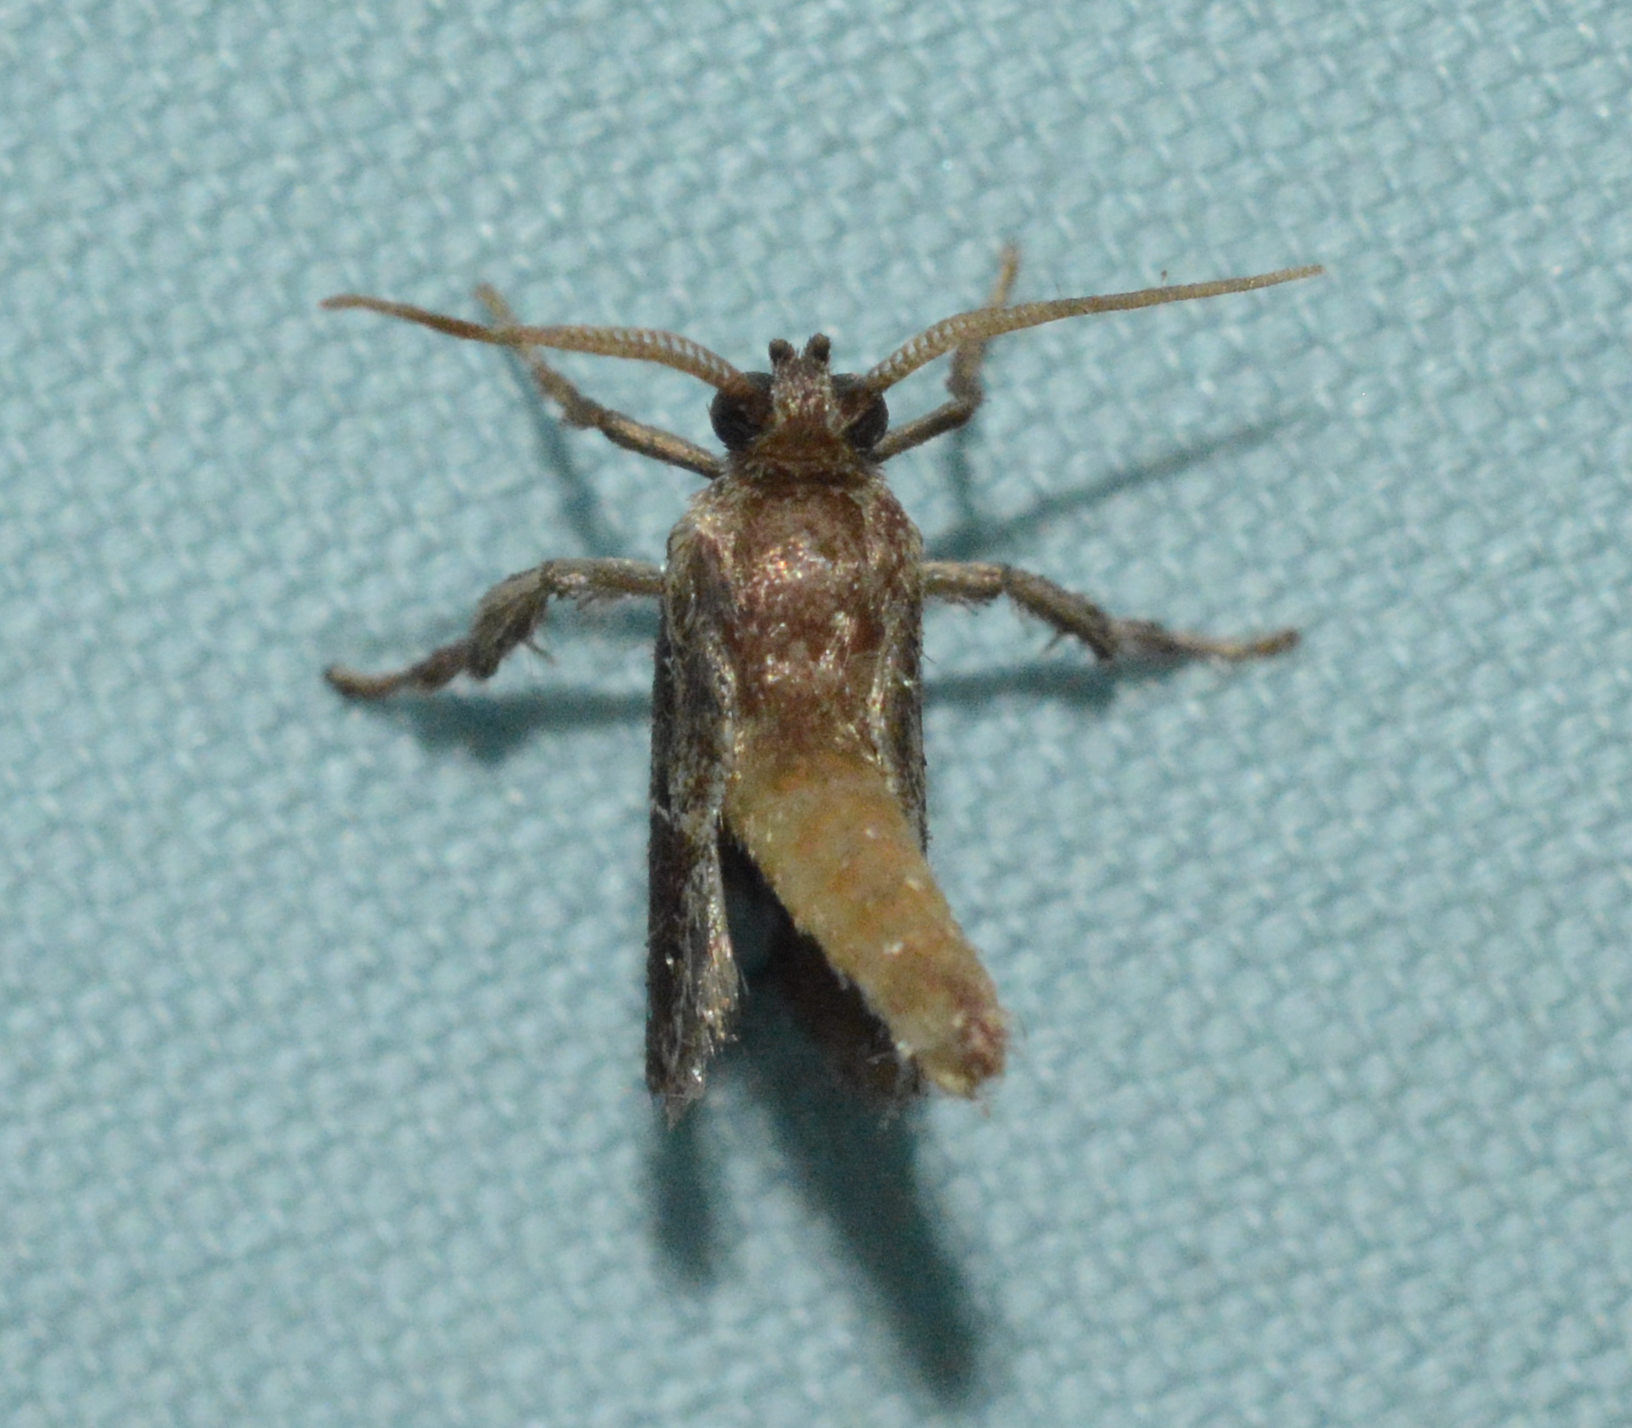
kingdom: Animalia
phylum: Arthropoda
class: Insecta
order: Lepidoptera
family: Limacodidae
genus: Adoneta
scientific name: Adoneta spinuloides
